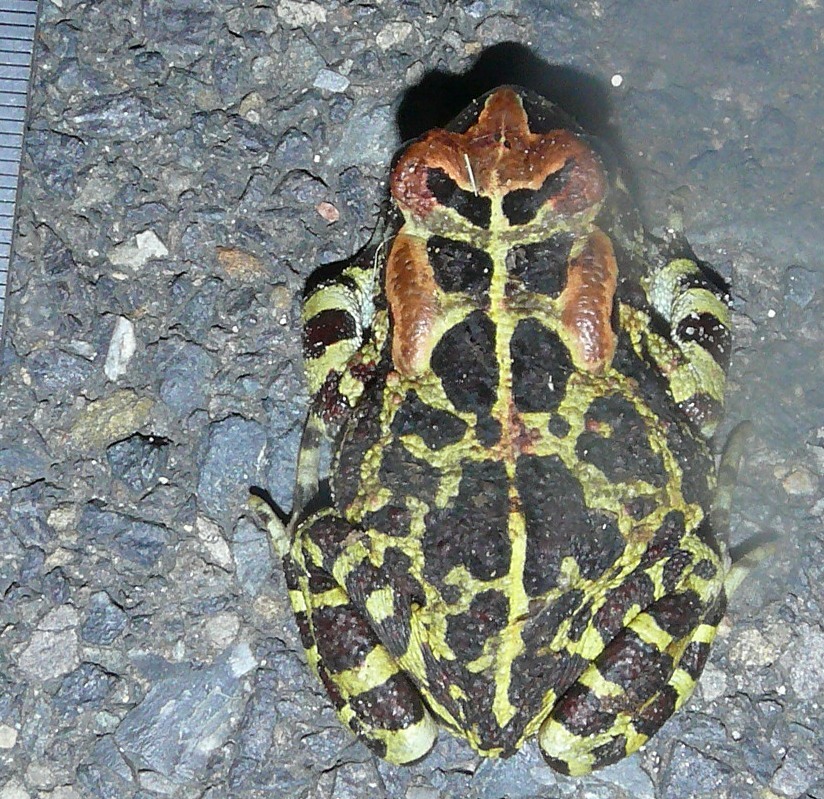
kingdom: Animalia
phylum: Chordata
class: Amphibia
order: Anura
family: Bufonidae
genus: Sclerophrys
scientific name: Sclerophrys pantherina
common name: Panther toad
